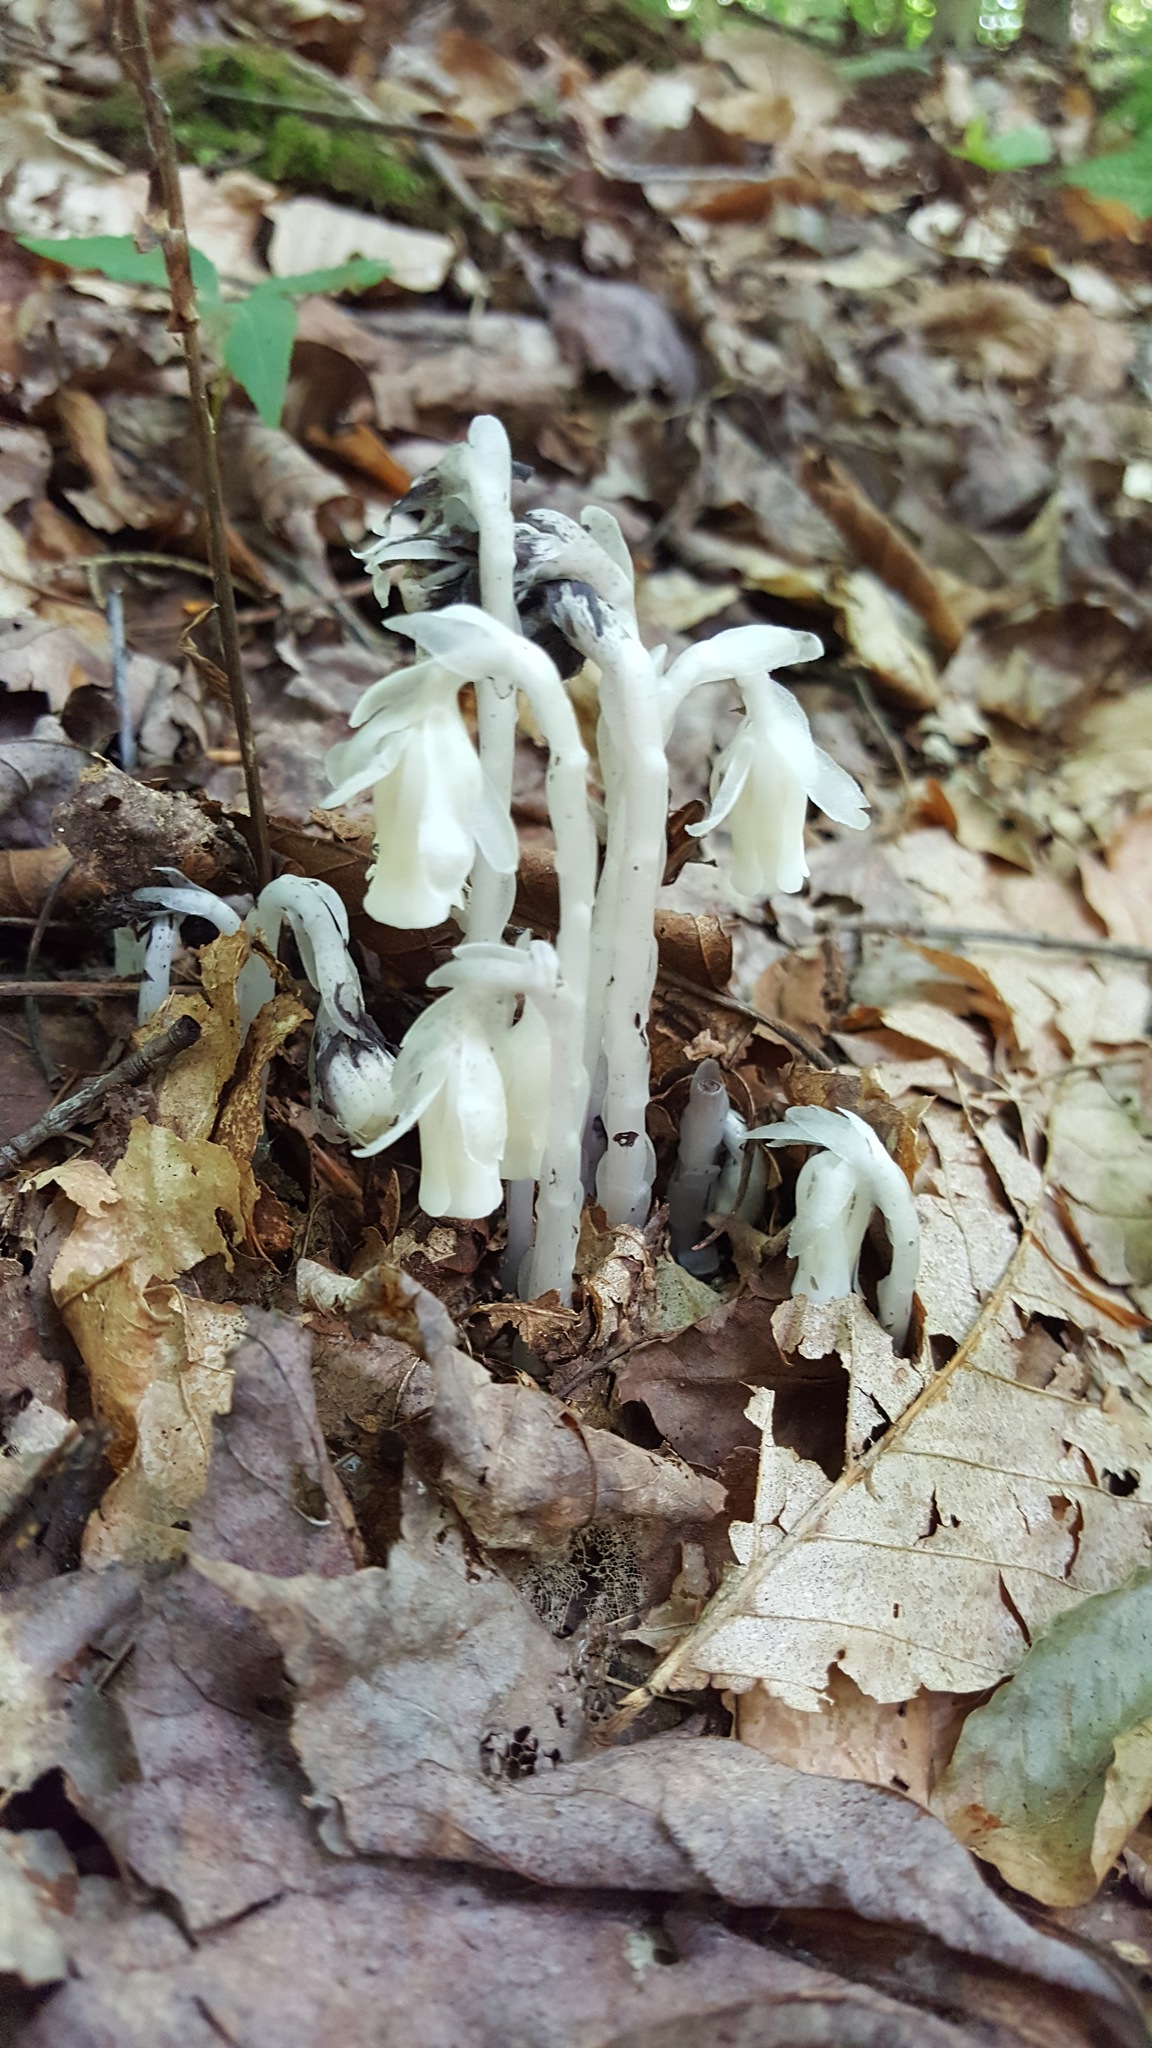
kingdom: Plantae
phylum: Tracheophyta
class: Magnoliopsida
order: Ericales
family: Ericaceae
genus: Monotropa
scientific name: Monotropa uniflora
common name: Convulsion root
